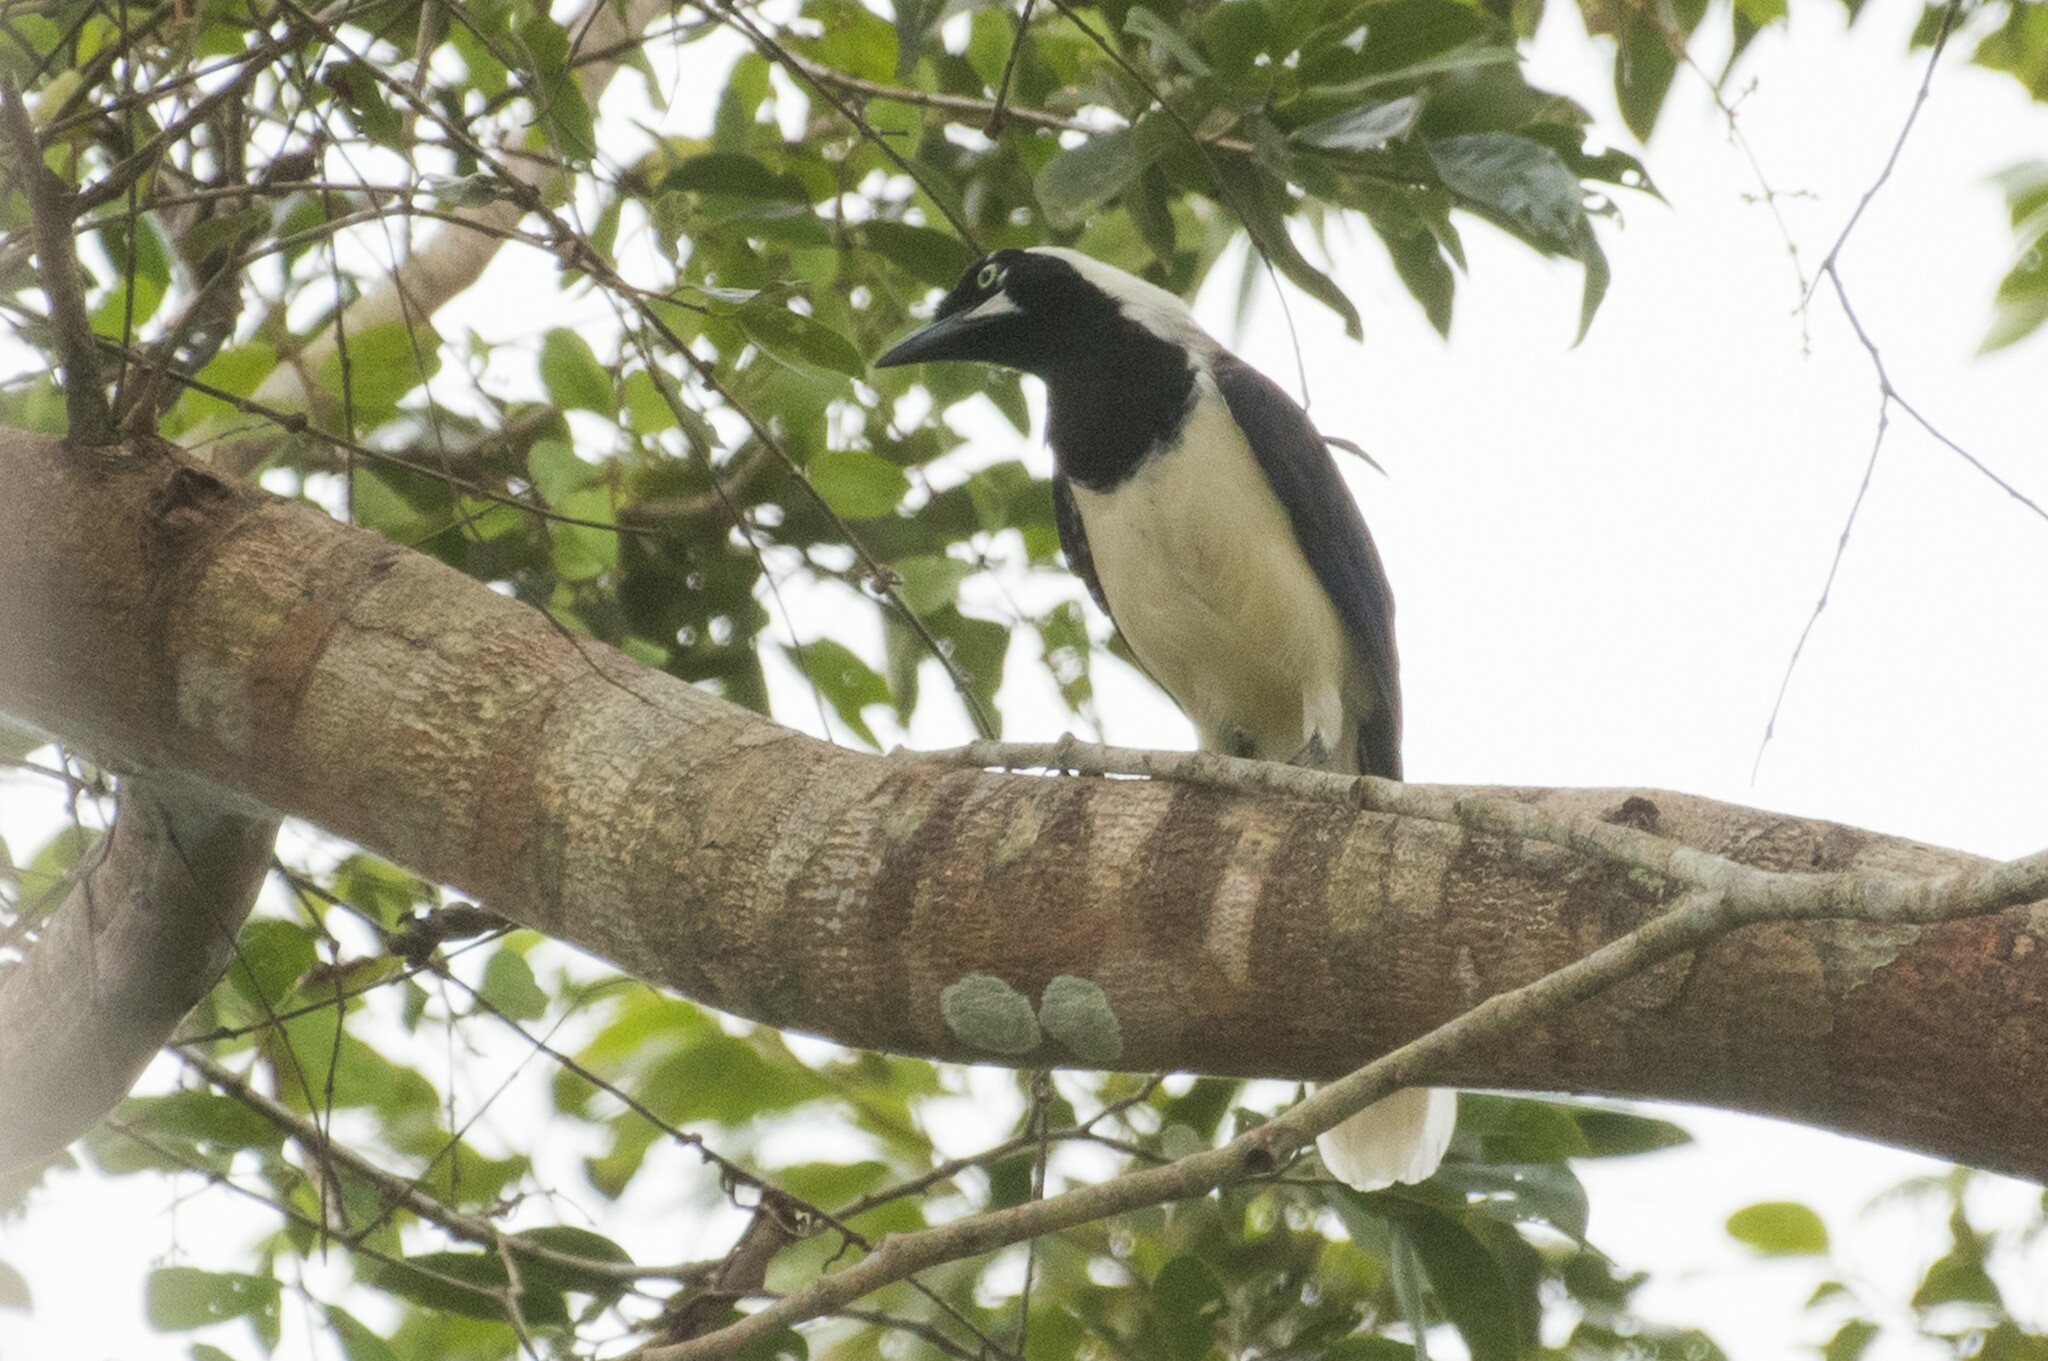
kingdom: Animalia
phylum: Chordata
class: Aves
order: Passeriformes
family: Corvidae
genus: Cyanocorax
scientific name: Cyanocorax cayanus
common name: Cayenne jay
